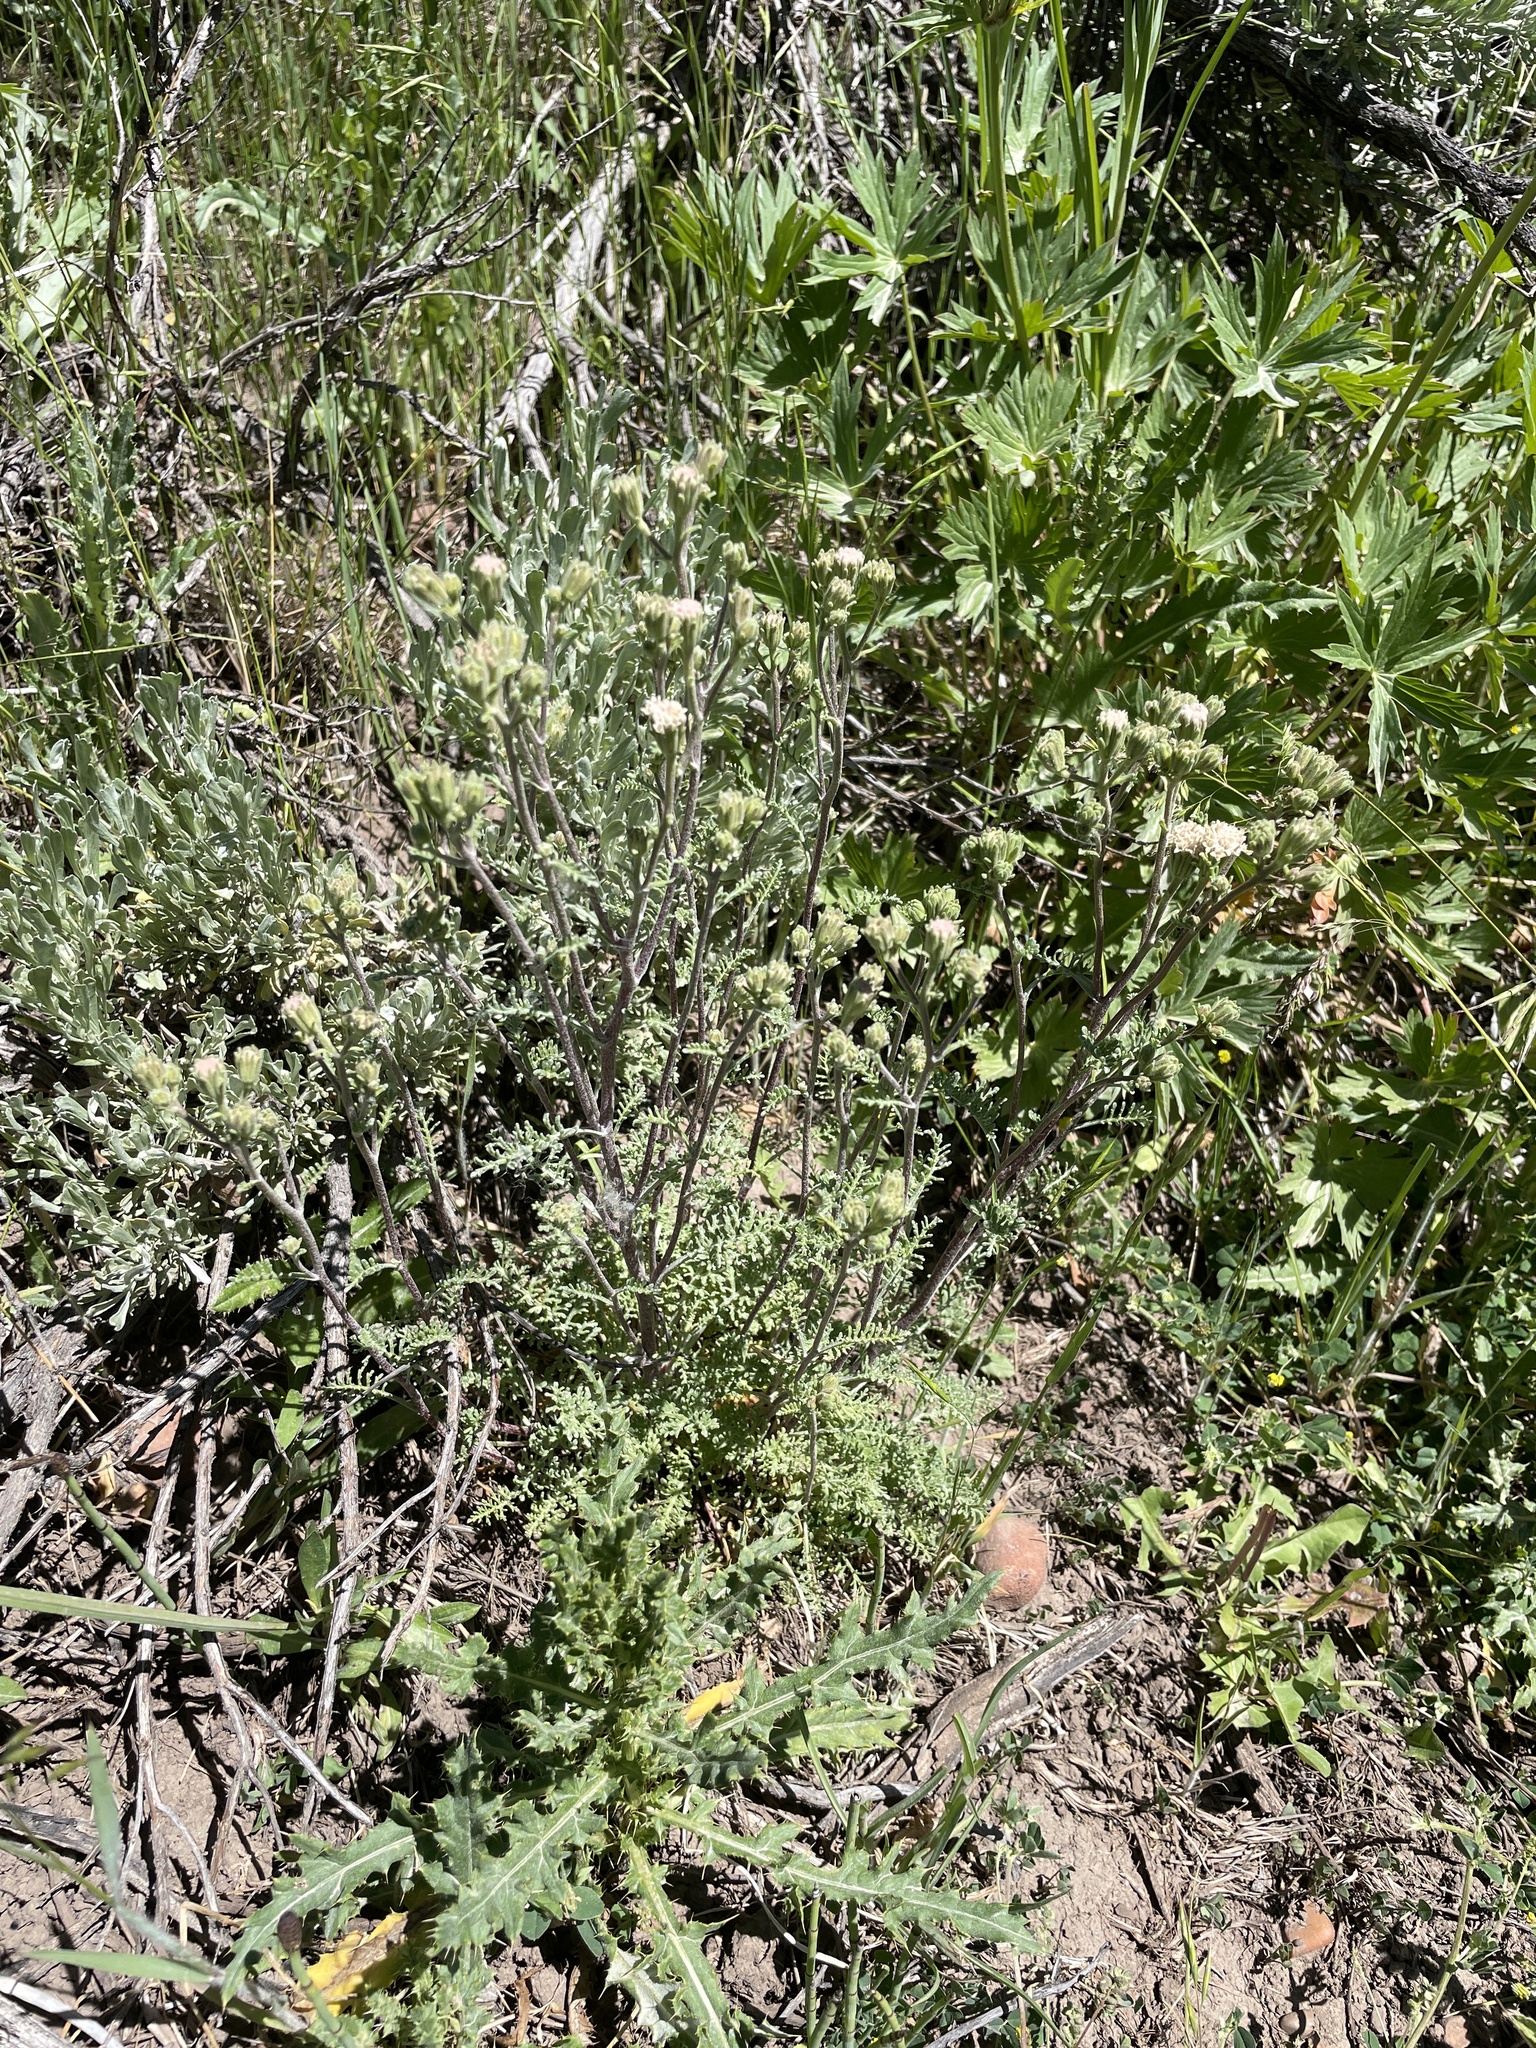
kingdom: Plantae
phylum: Tracheophyta
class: Magnoliopsida
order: Asterales
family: Asteraceae
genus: Chaenactis
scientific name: Chaenactis douglasii
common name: Hoary pincushion
